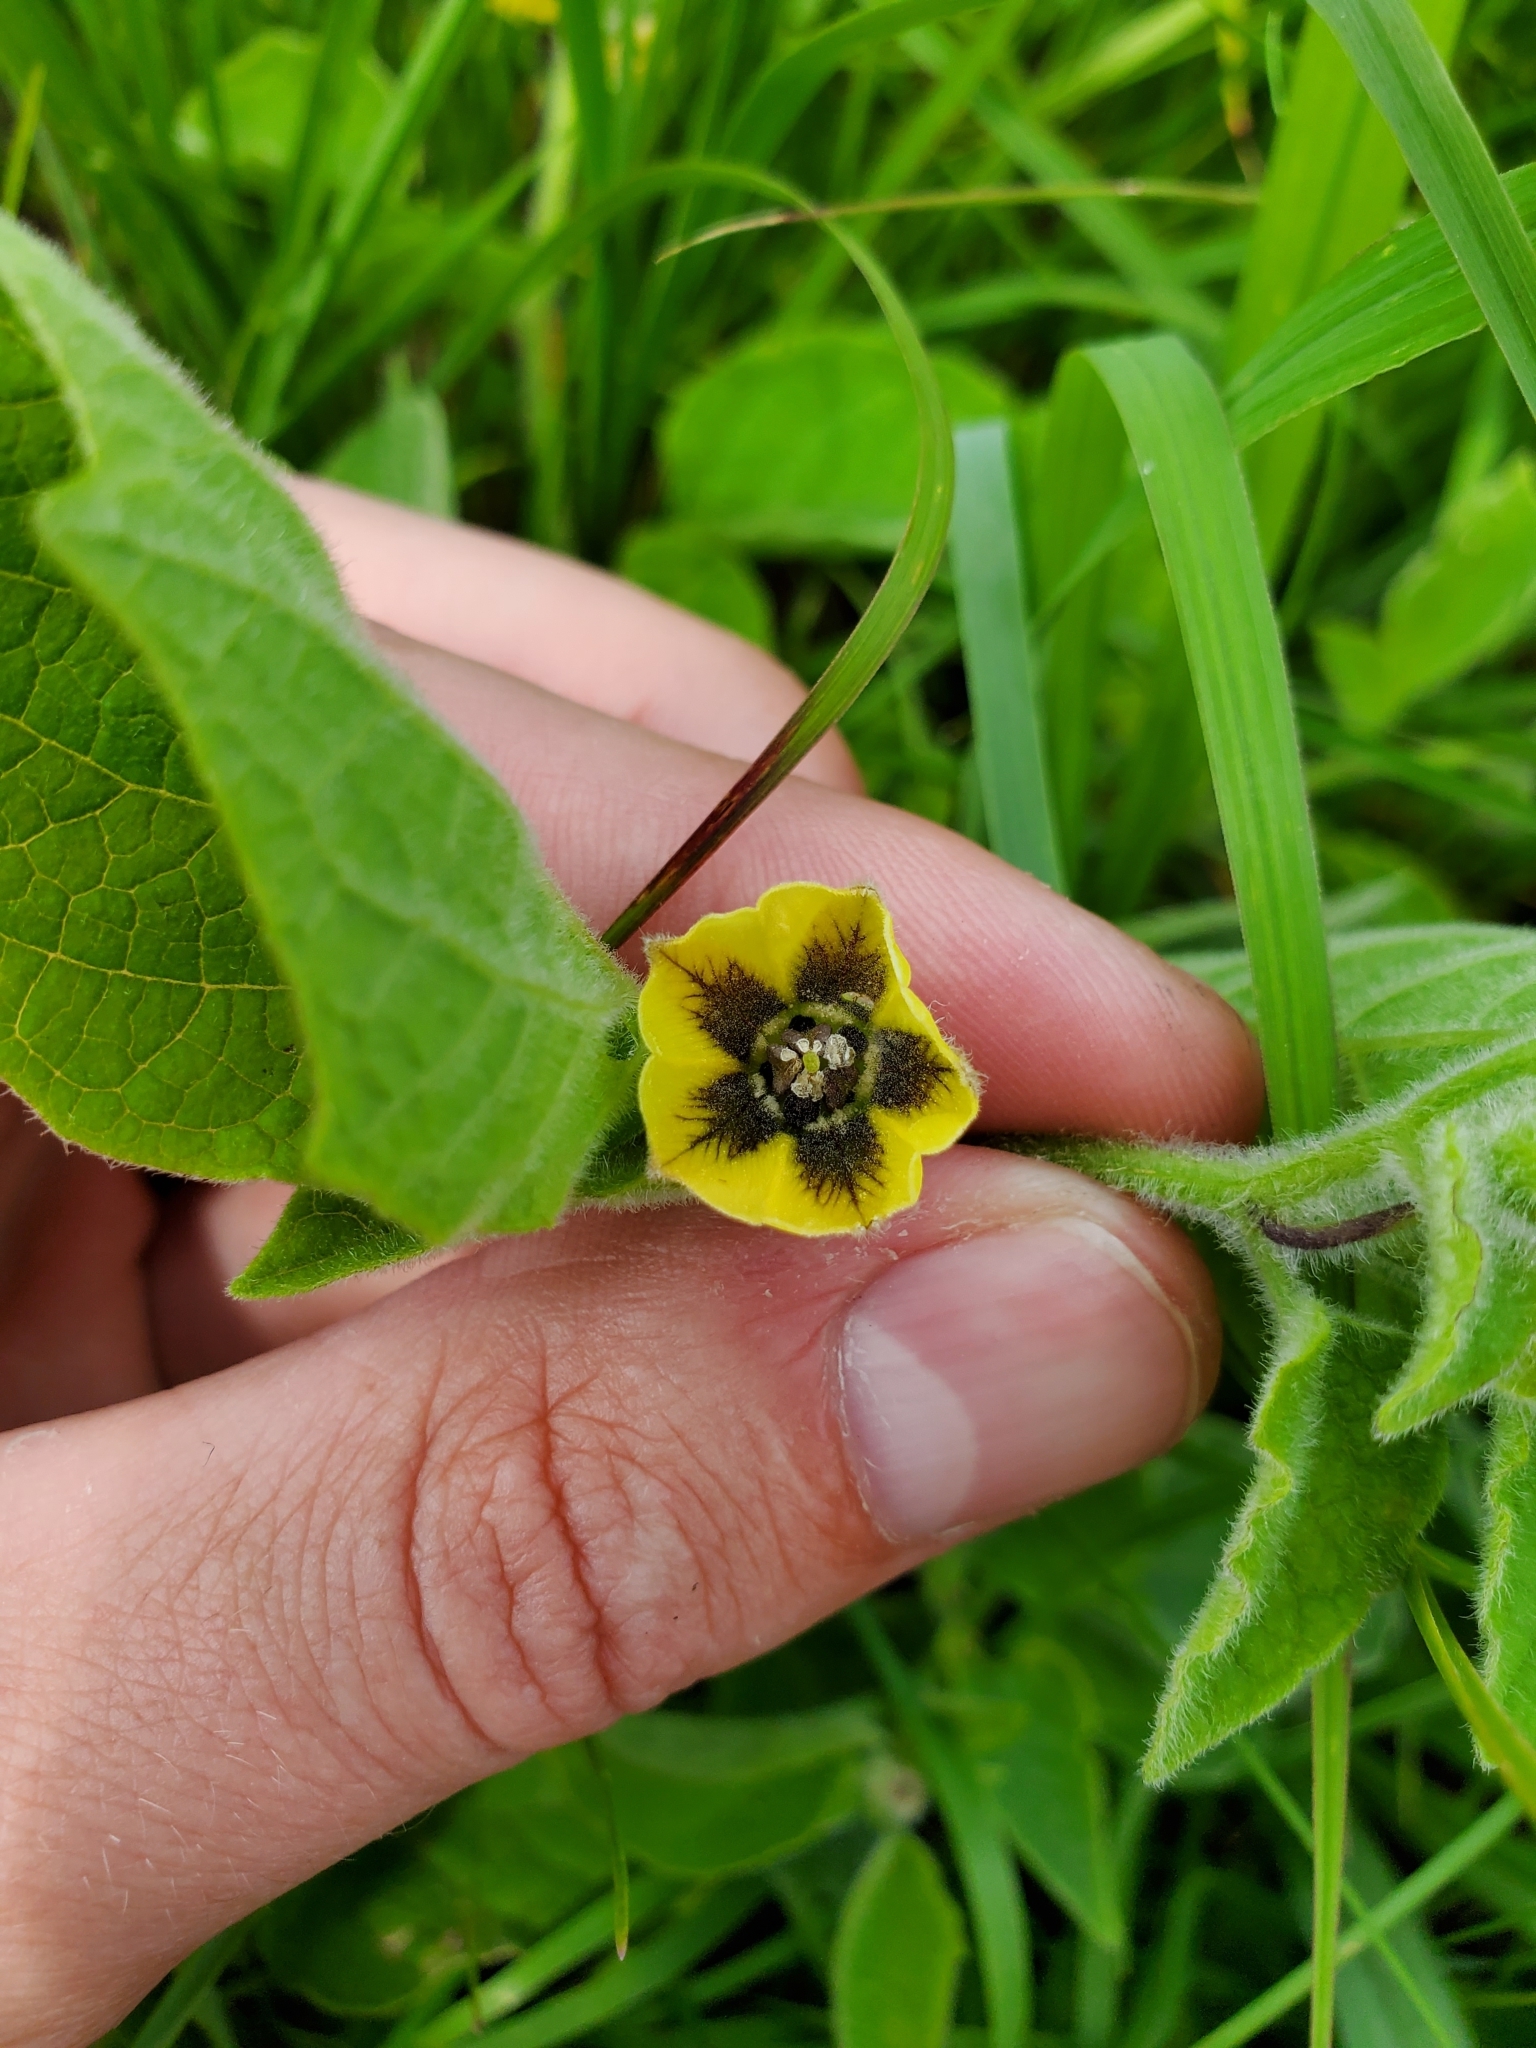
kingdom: Plantae
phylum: Tracheophyta
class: Magnoliopsida
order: Solanales
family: Solanaceae
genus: Physalis
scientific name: Physalis heterophylla
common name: Clammy ground-cherry
